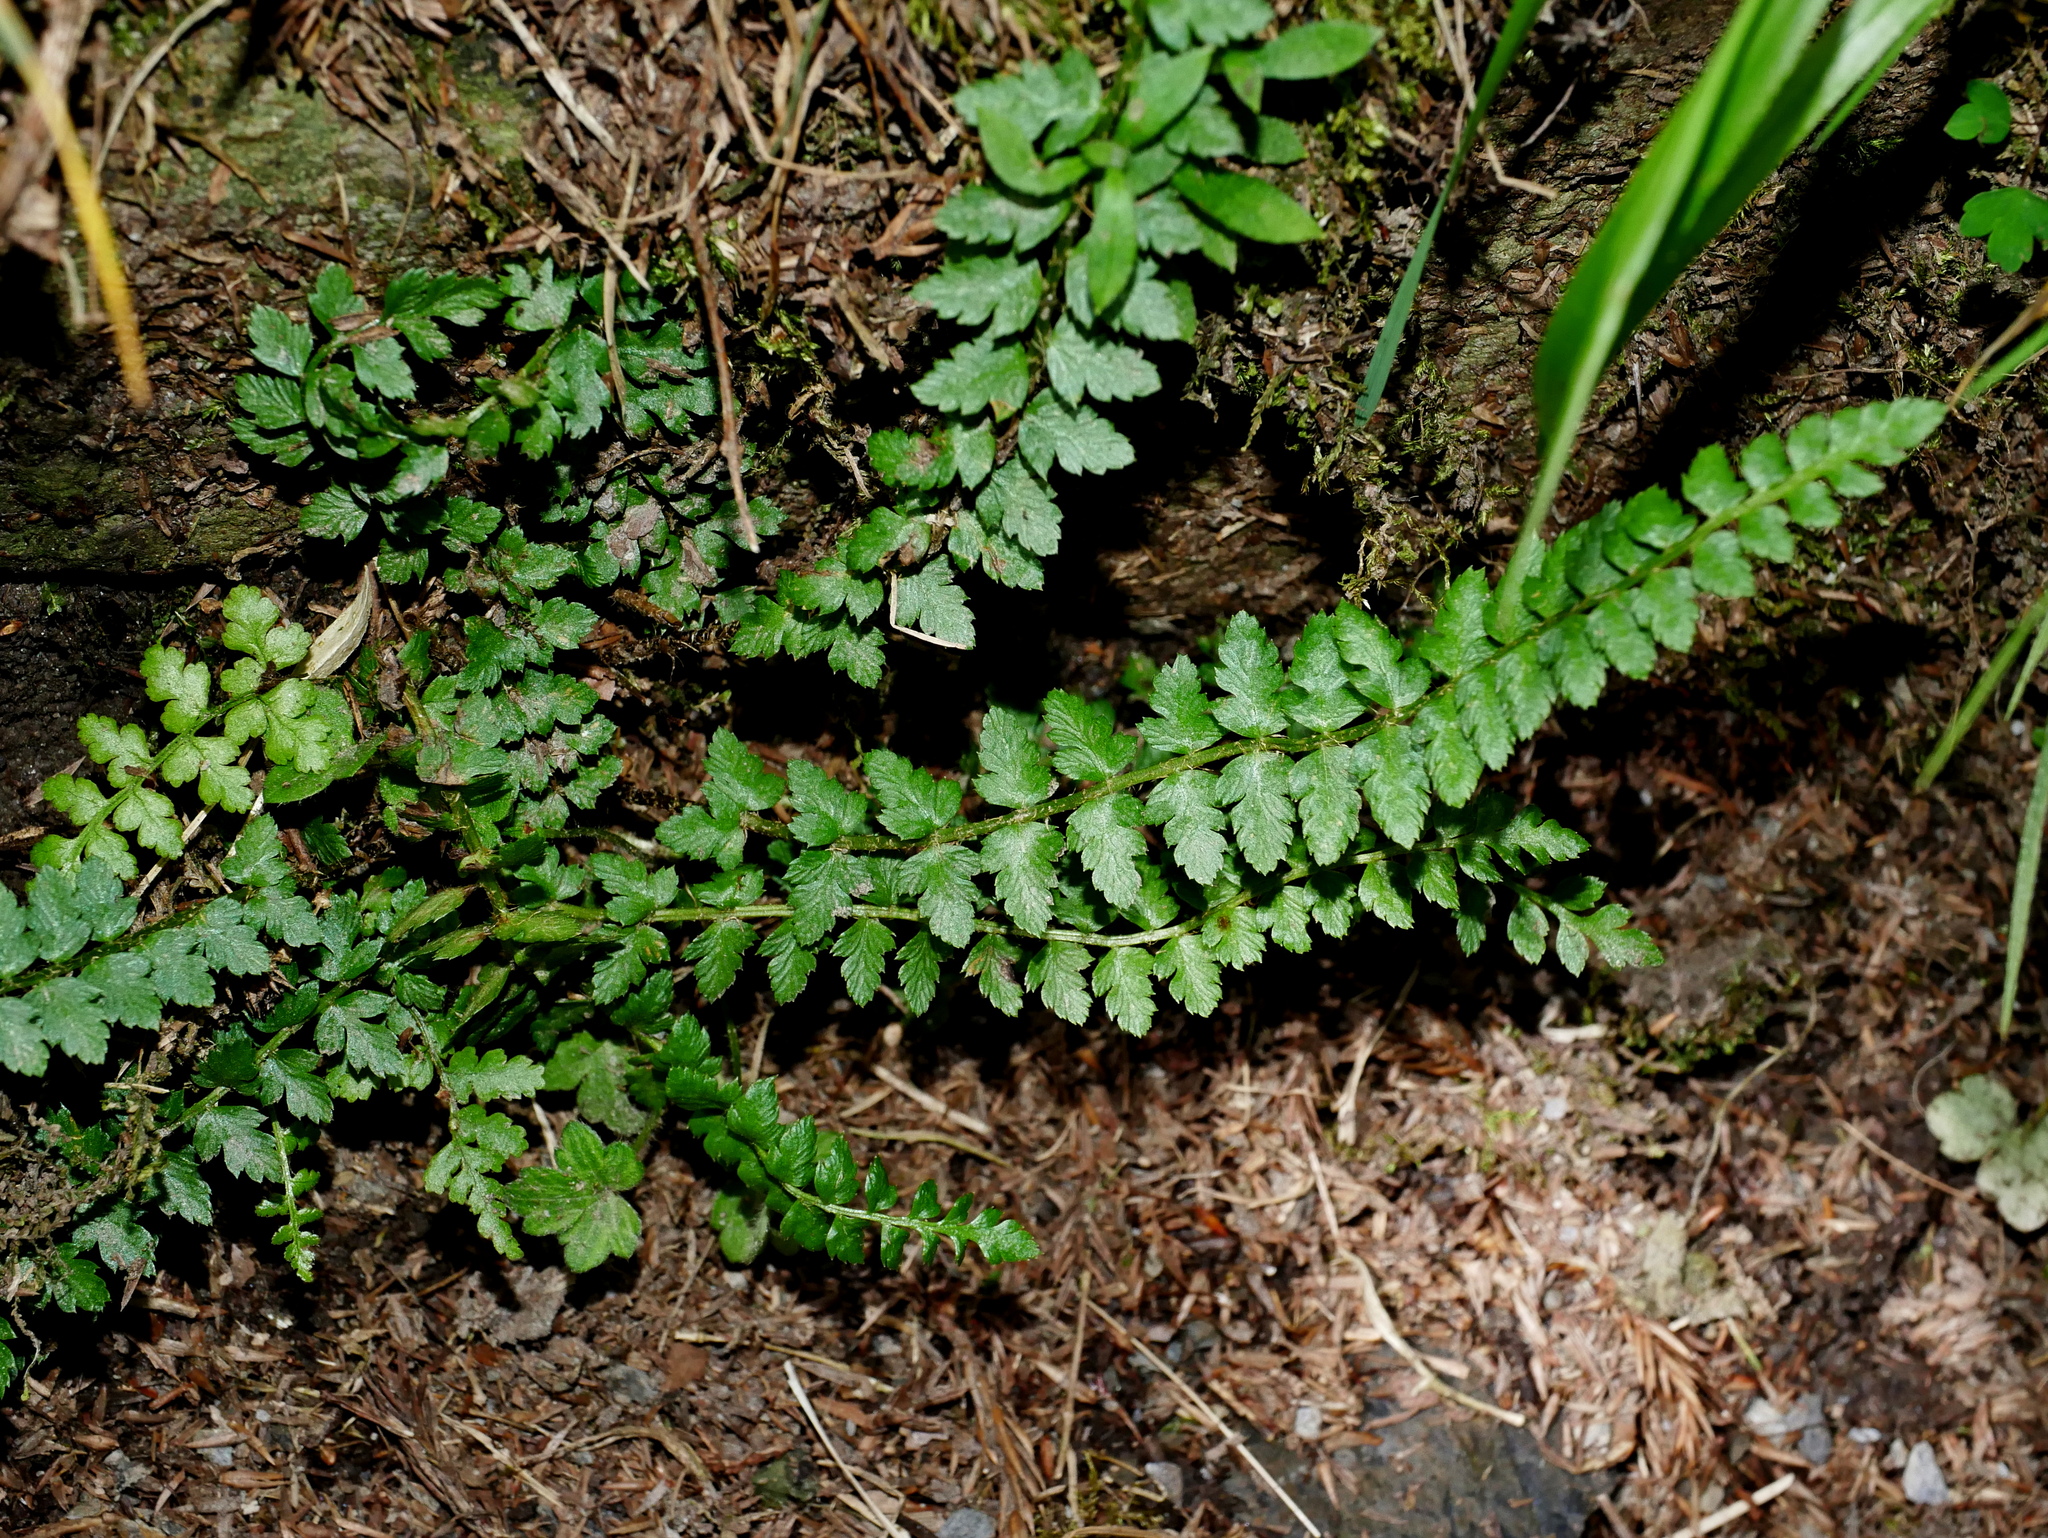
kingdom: Plantae
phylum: Tracheophyta
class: Polypodiopsida
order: Polypodiales
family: Dryopteridaceae
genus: Polystichum
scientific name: Polystichum lachenense
